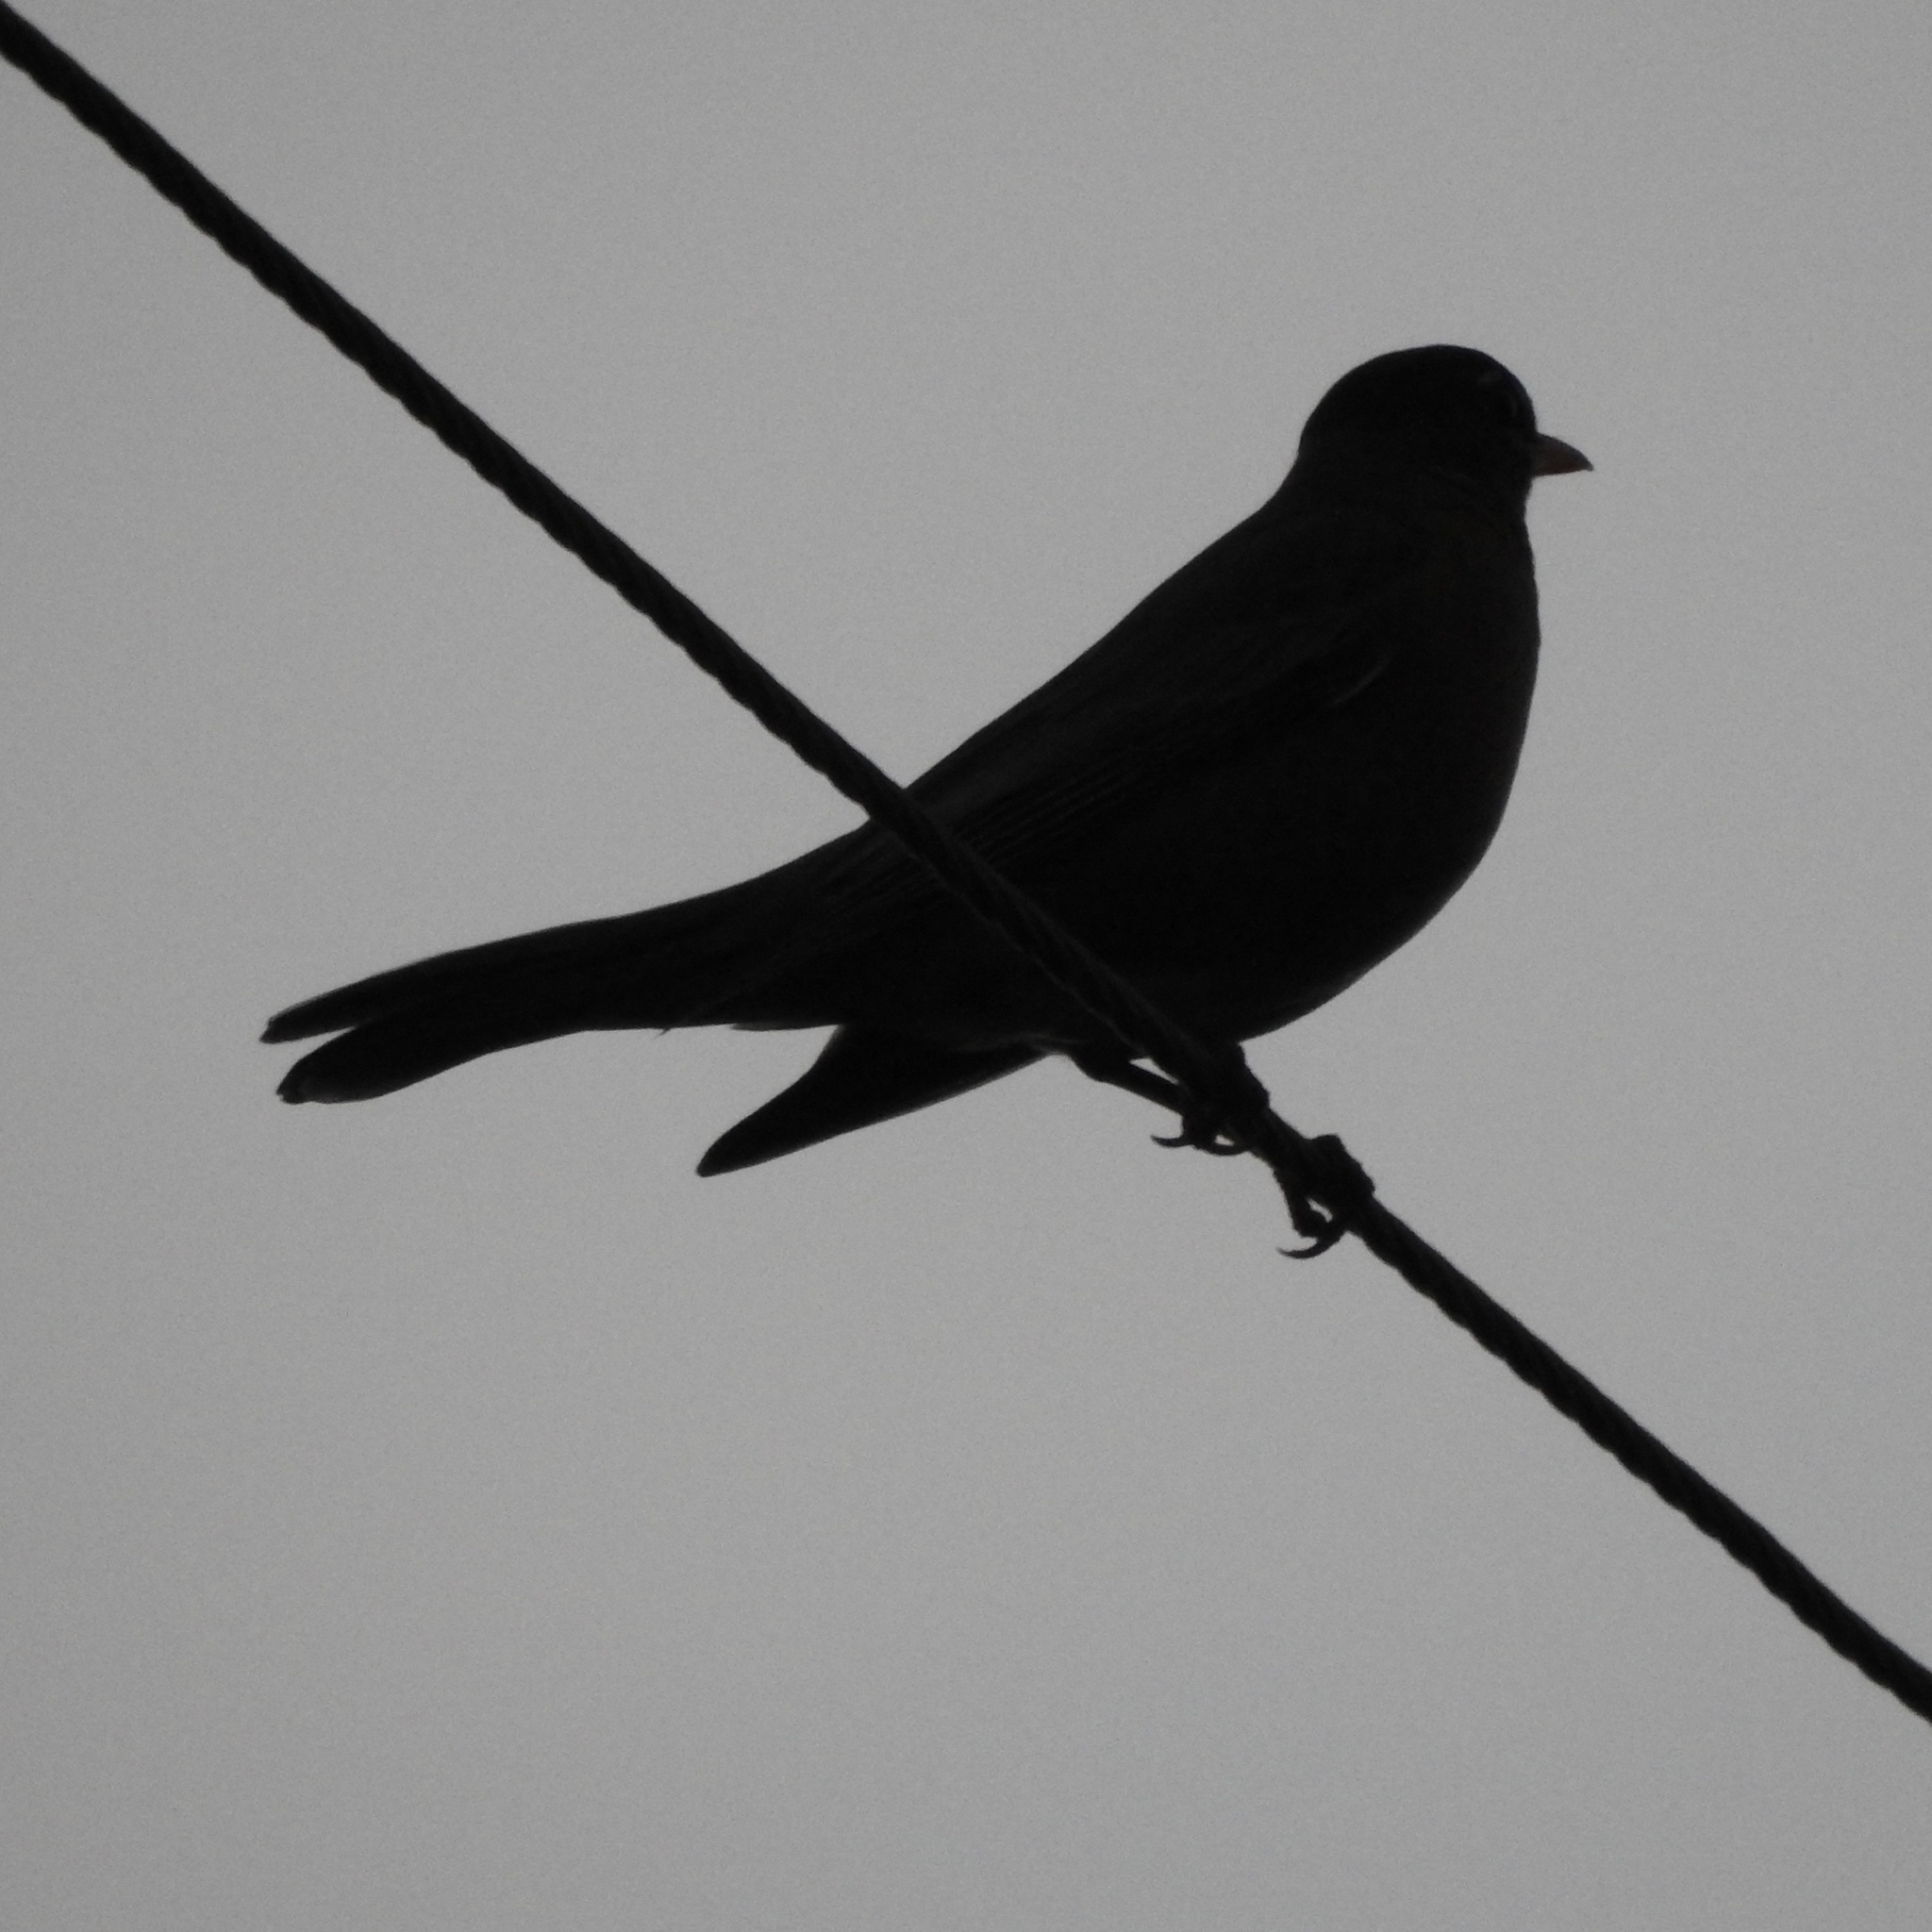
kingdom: Animalia
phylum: Chordata
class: Aves
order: Passeriformes
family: Turdidae
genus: Turdus
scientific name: Turdus migratorius
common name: American robin
